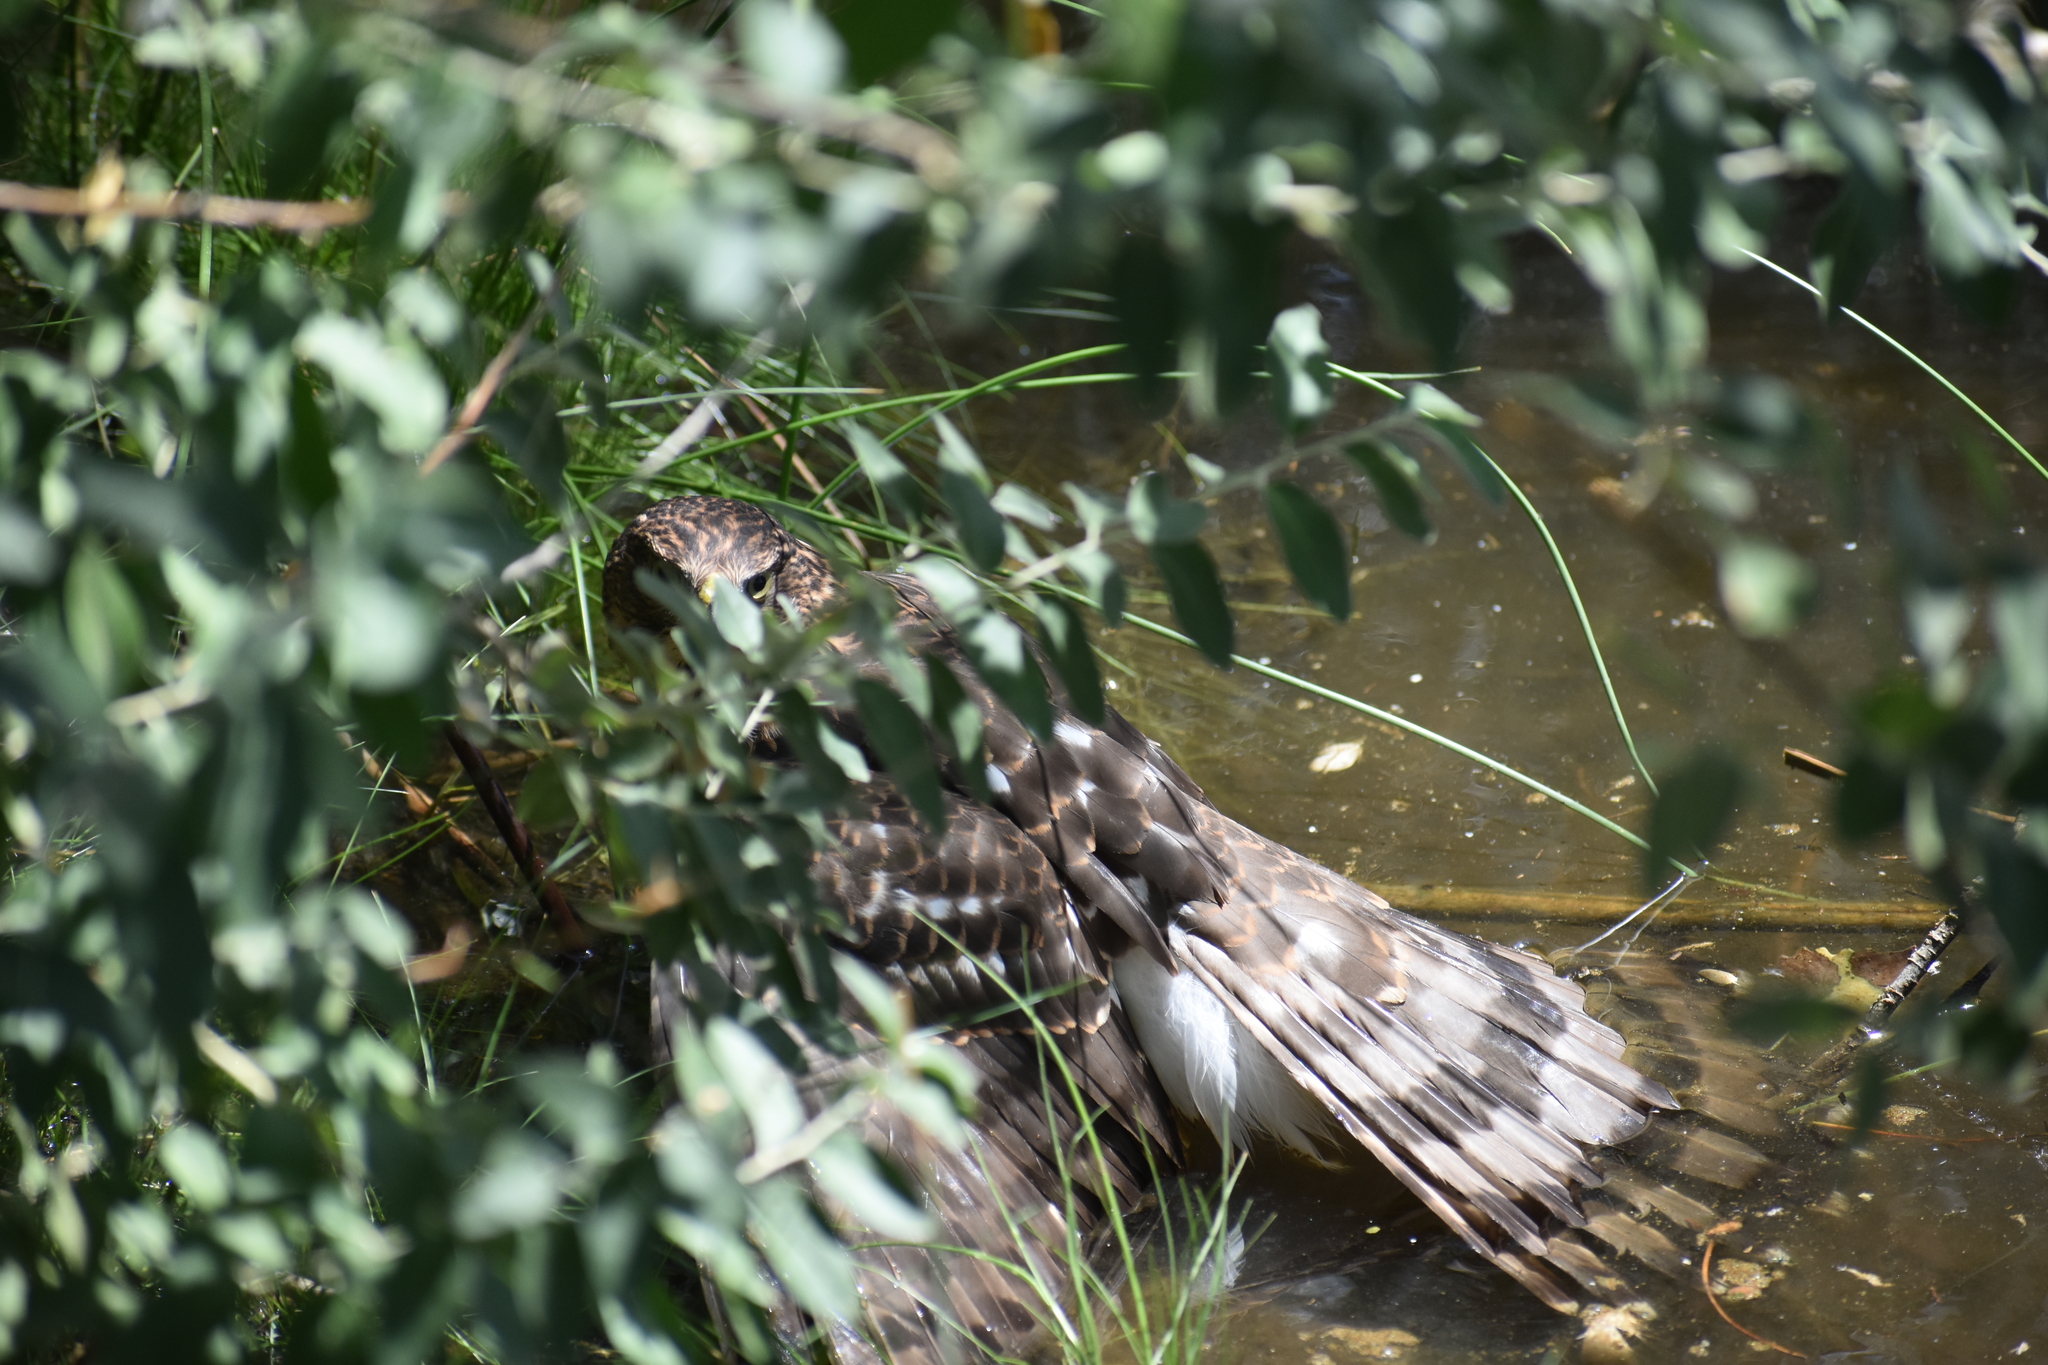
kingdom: Animalia
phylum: Chordata
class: Aves
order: Accipitriformes
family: Accipitridae
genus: Accipiter
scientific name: Accipiter cooperii
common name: Cooper's hawk
